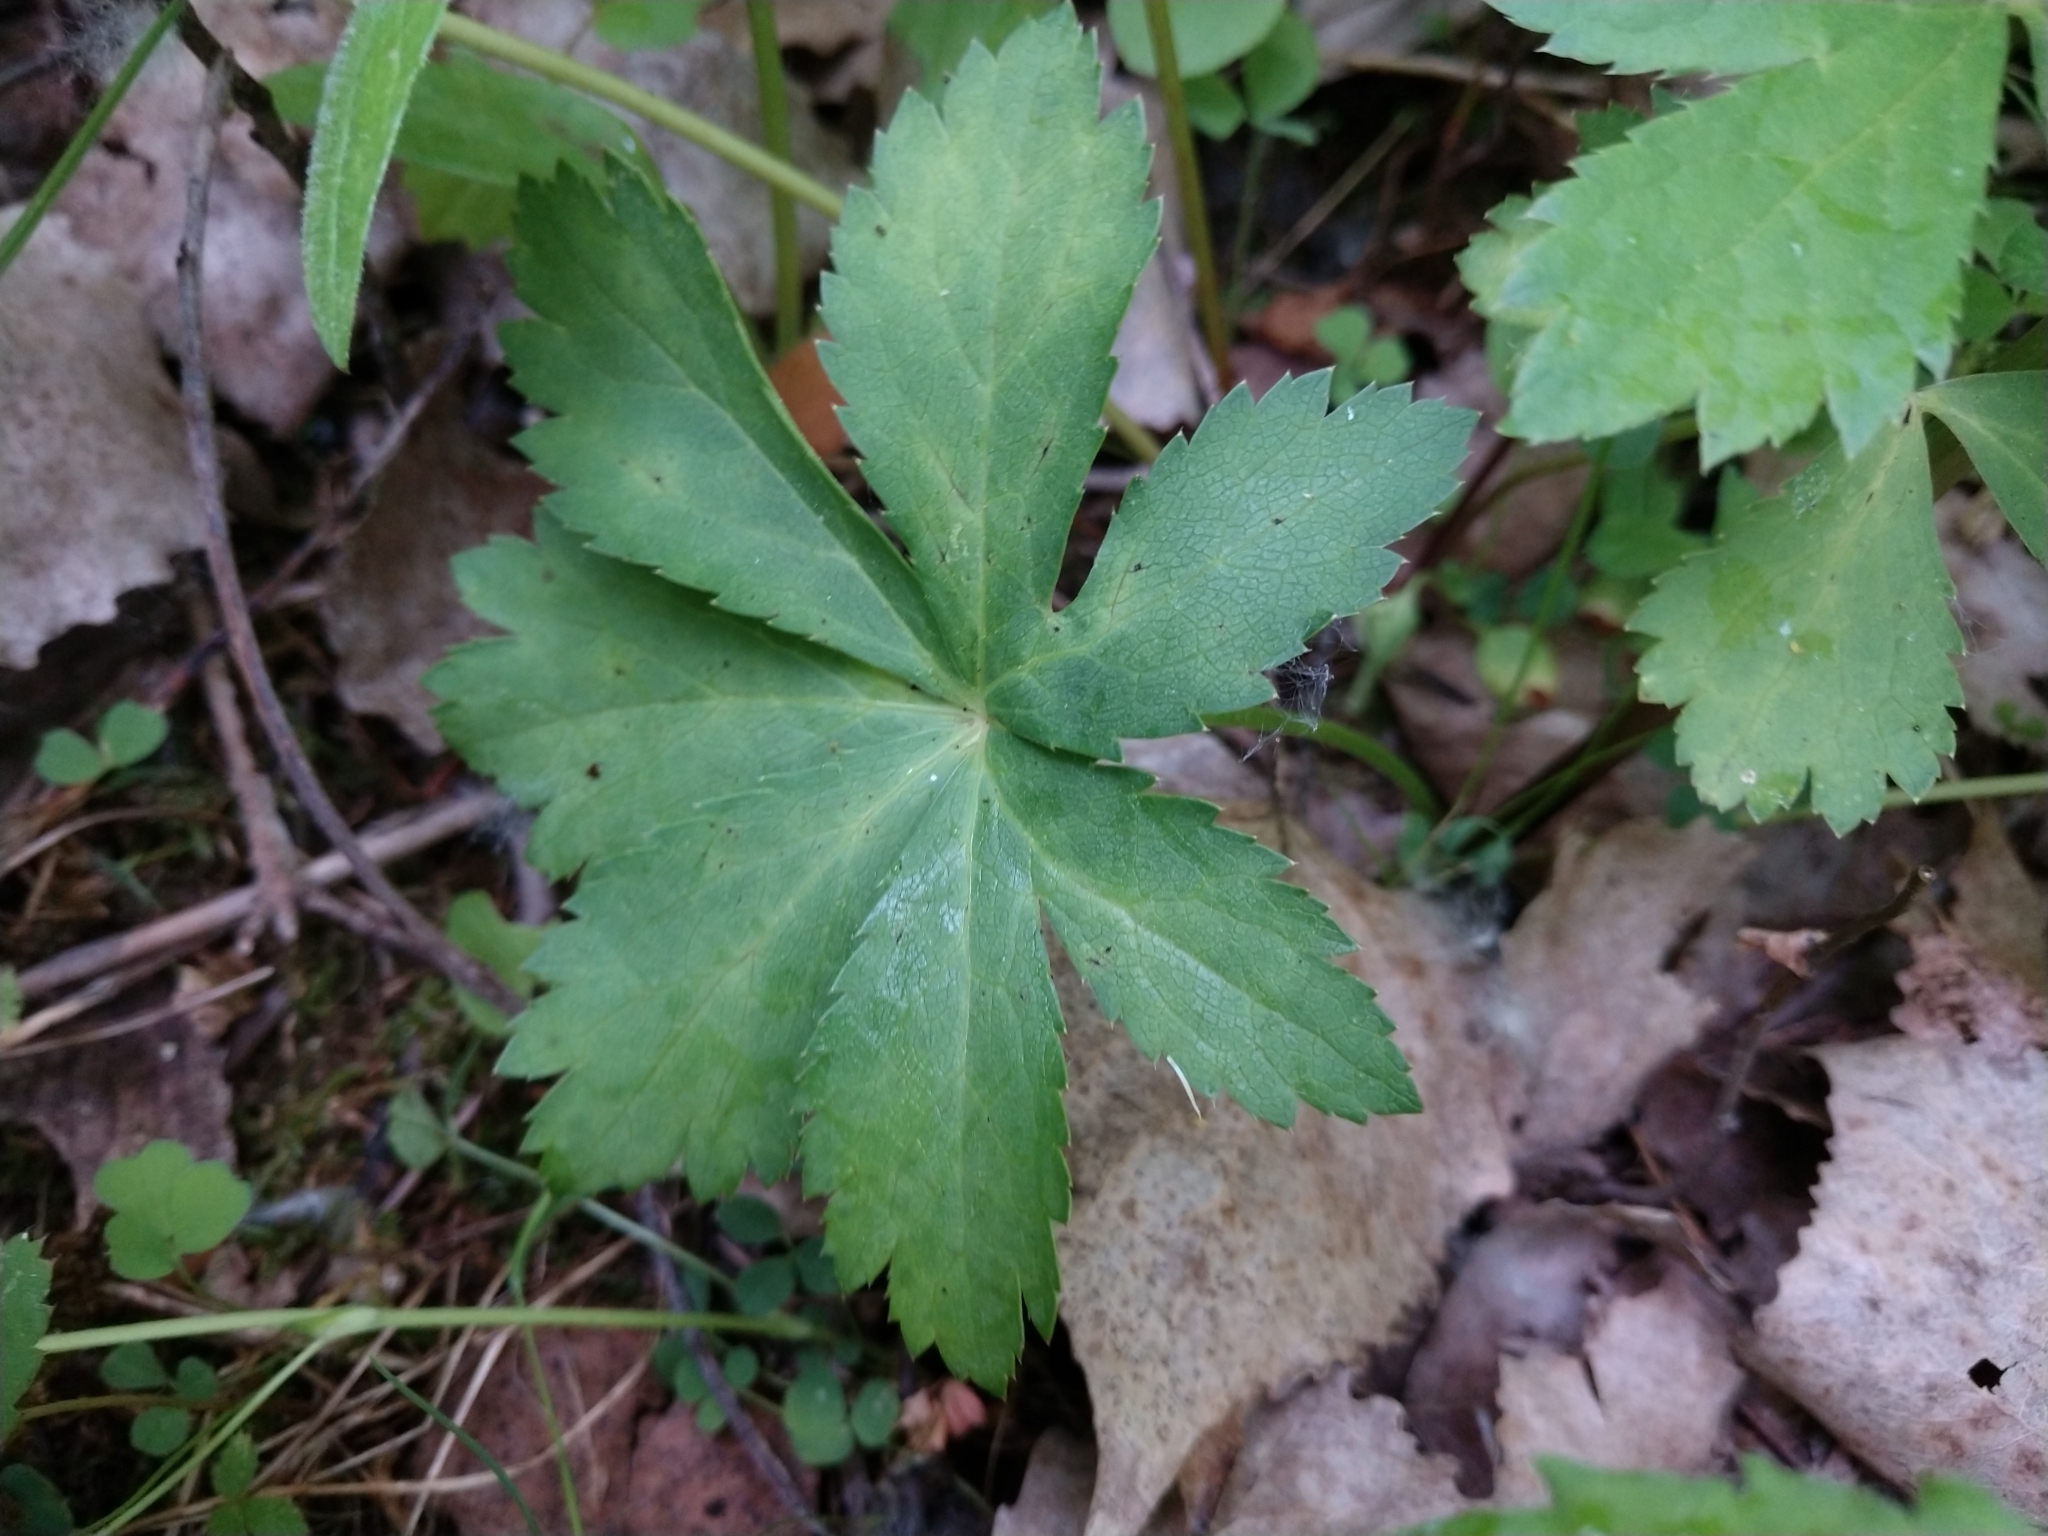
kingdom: Plantae
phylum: Tracheophyta
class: Magnoliopsida
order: Apiales
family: Apiaceae
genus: Sanicula
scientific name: Sanicula marilandica
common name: Black snakeroot
